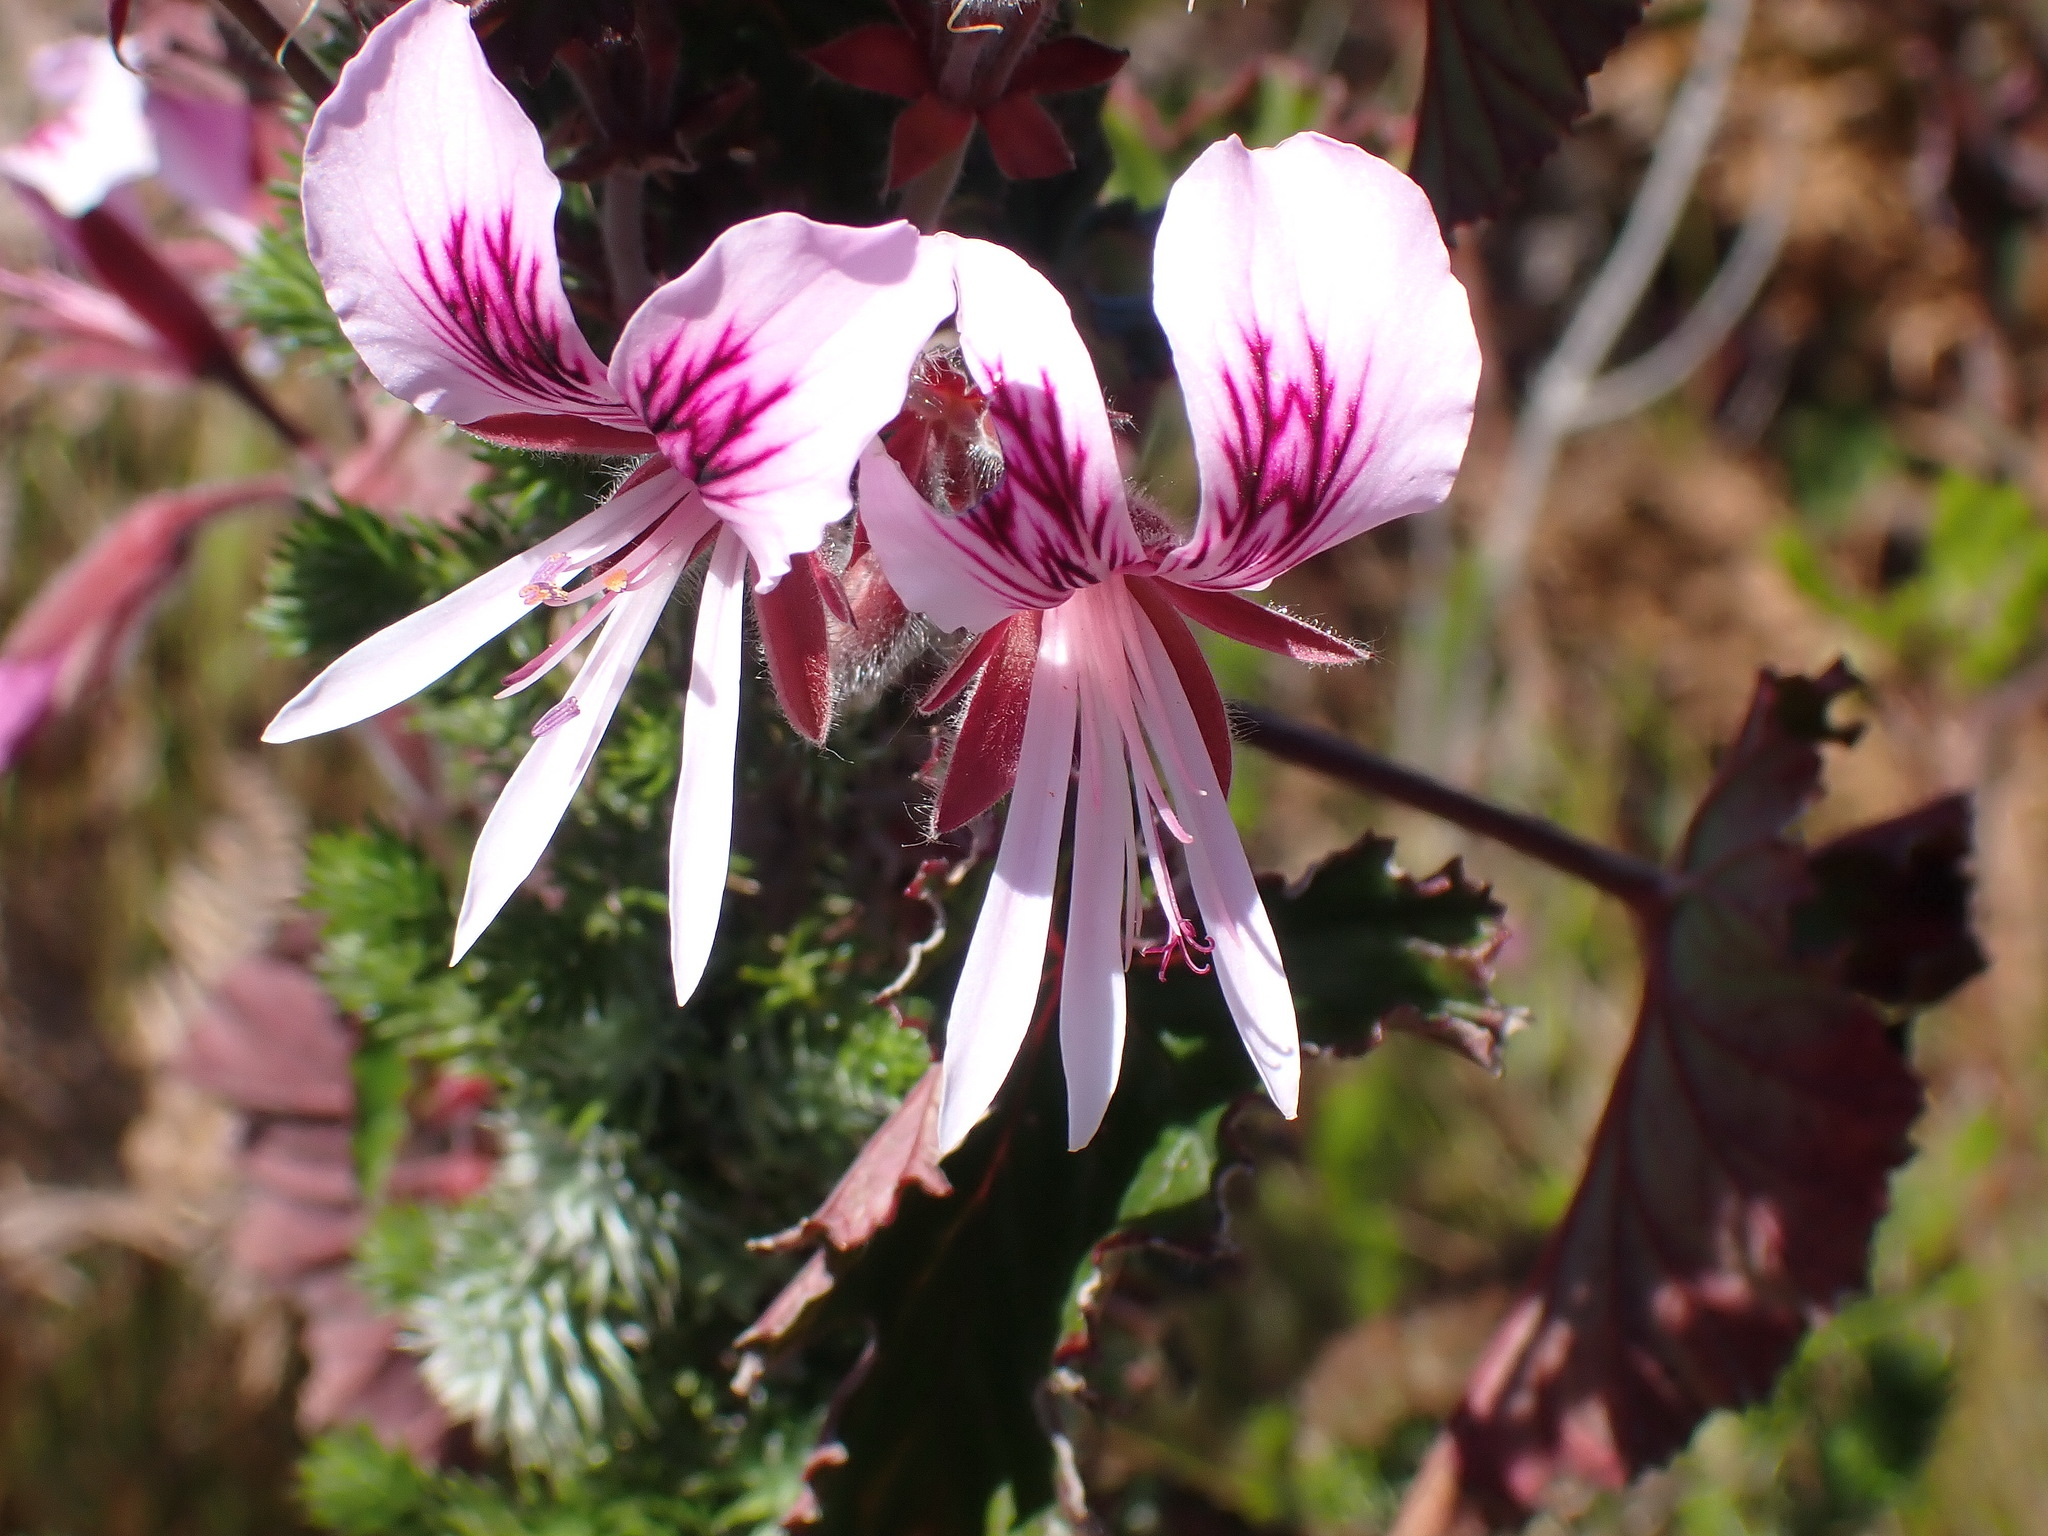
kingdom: Plantae
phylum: Tracheophyta
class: Magnoliopsida
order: Geraniales
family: Geraniaceae
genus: Pelargonium
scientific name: Pelargonium cordifolium
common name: Heart-leaf pelargonium
